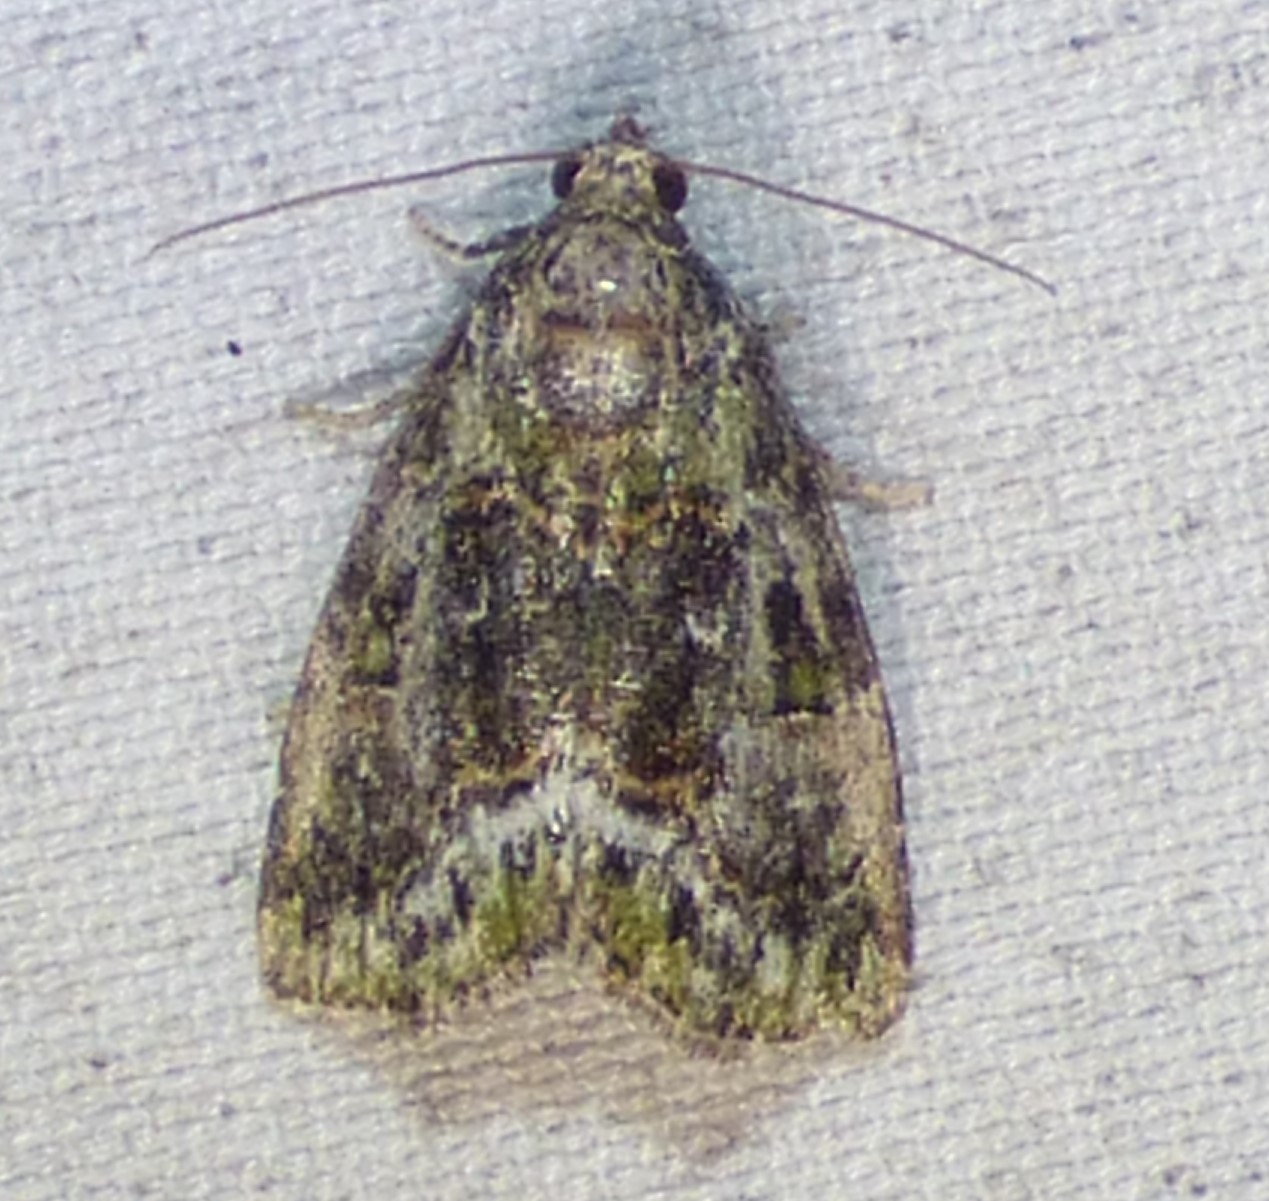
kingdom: Animalia
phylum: Arthropoda
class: Insecta
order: Lepidoptera
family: Noctuidae
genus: Lithacodia
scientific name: Lithacodia musta
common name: Small mossy glyph
